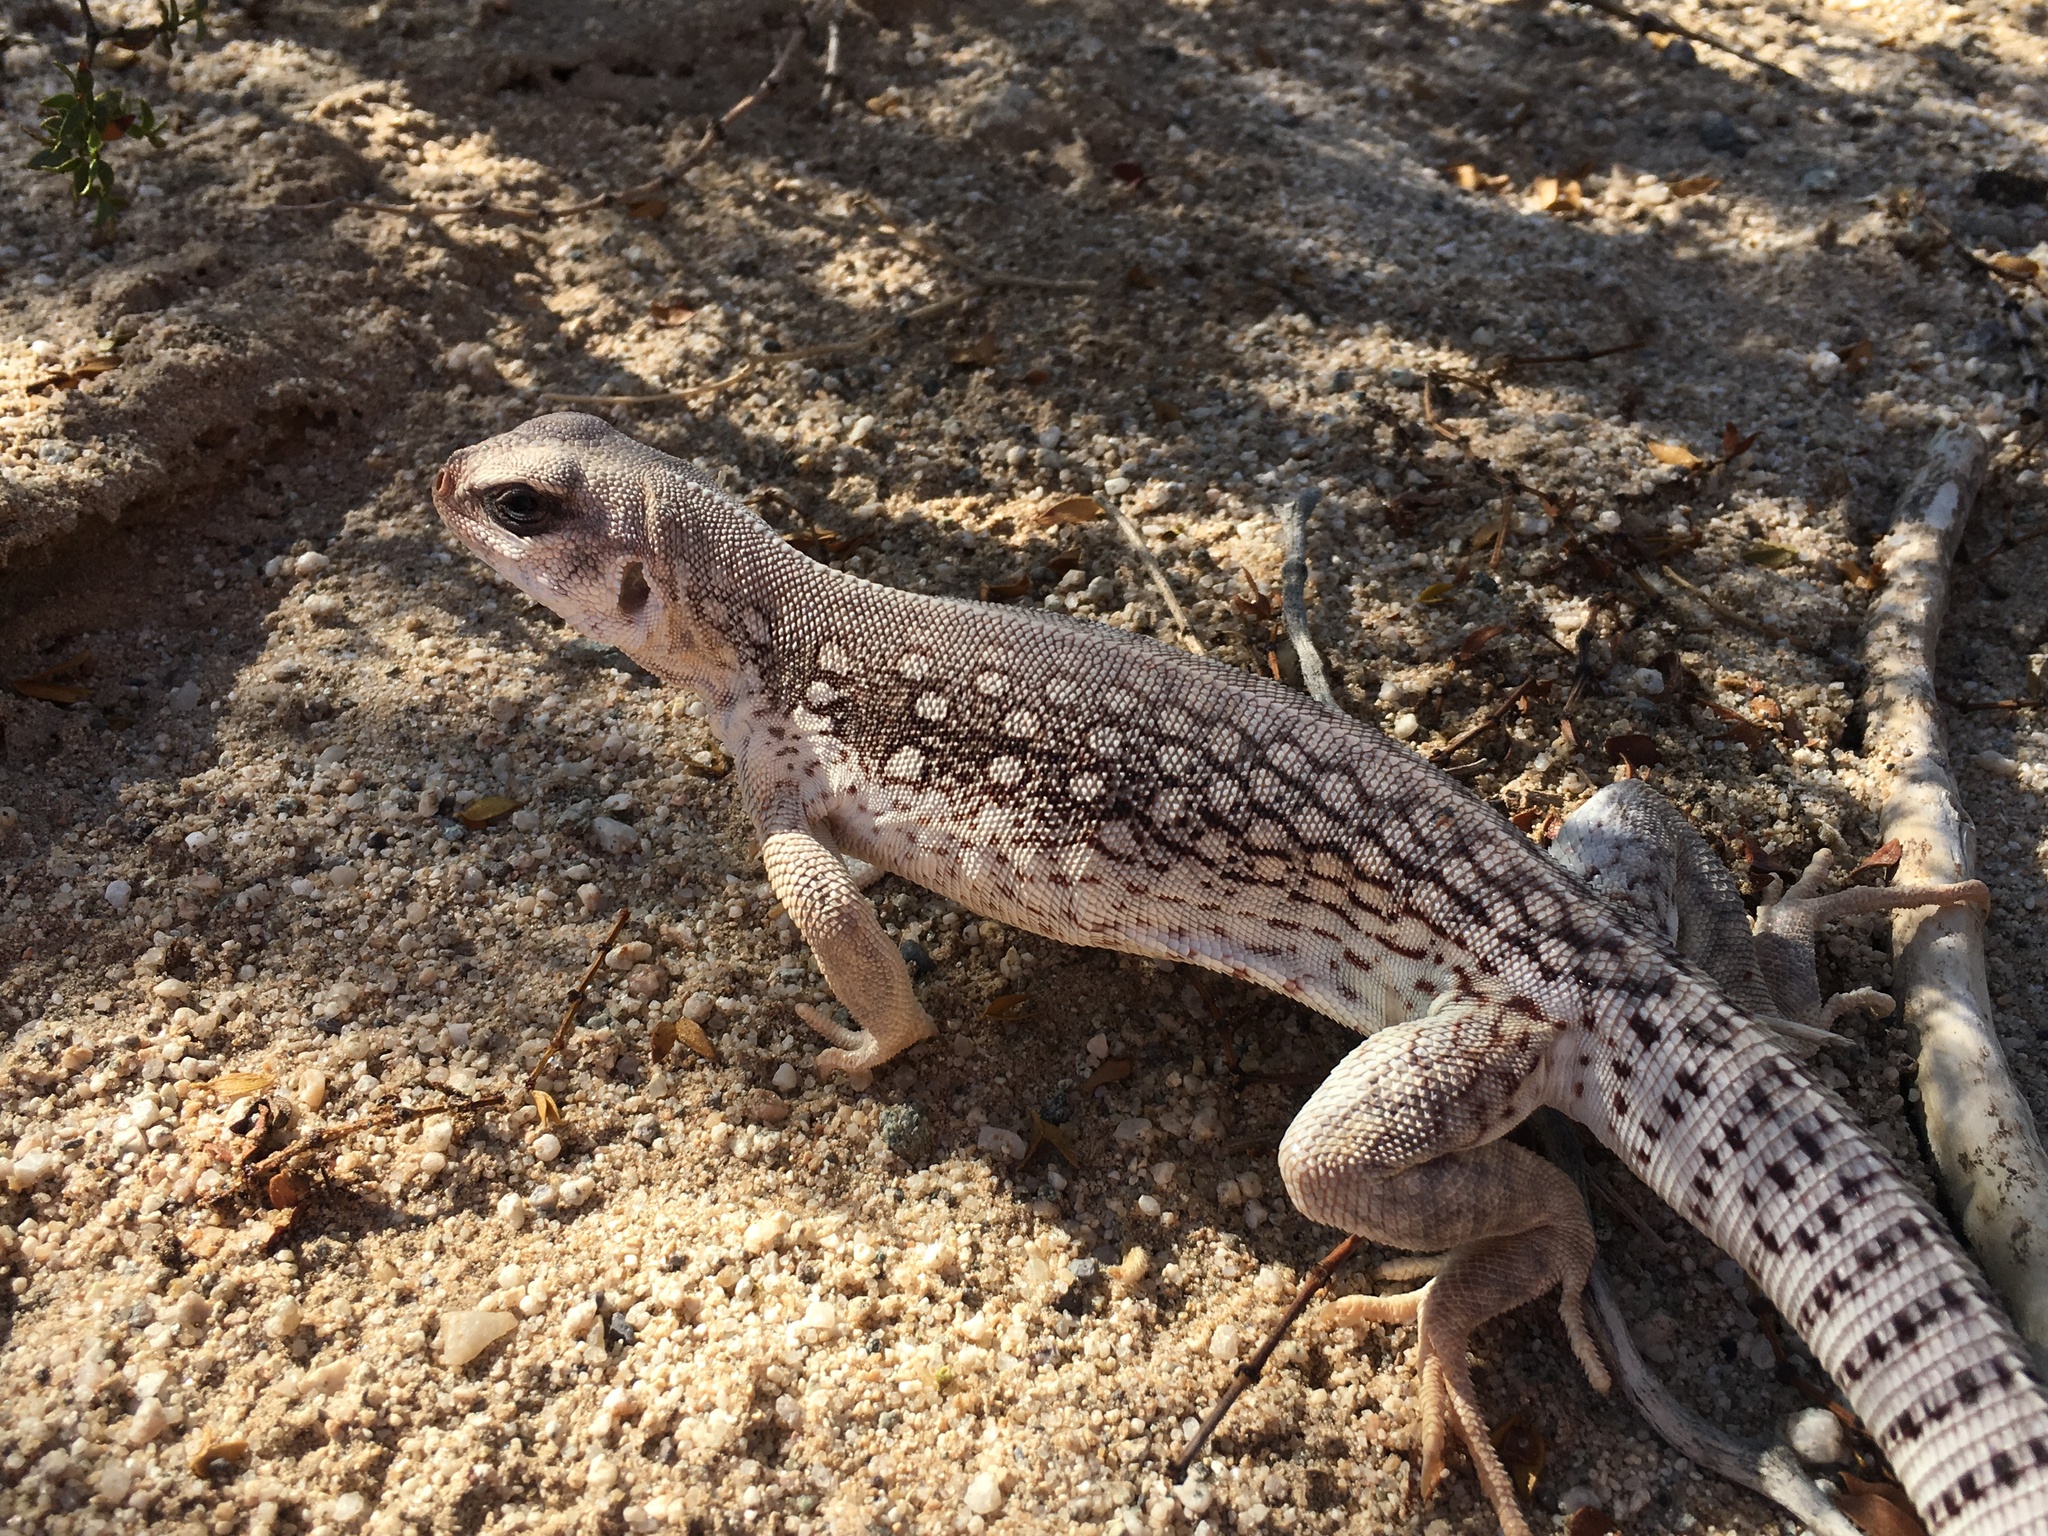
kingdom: Animalia
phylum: Chordata
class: Squamata
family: Iguanidae
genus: Dipsosaurus
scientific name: Dipsosaurus dorsalis
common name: Desert iguana
